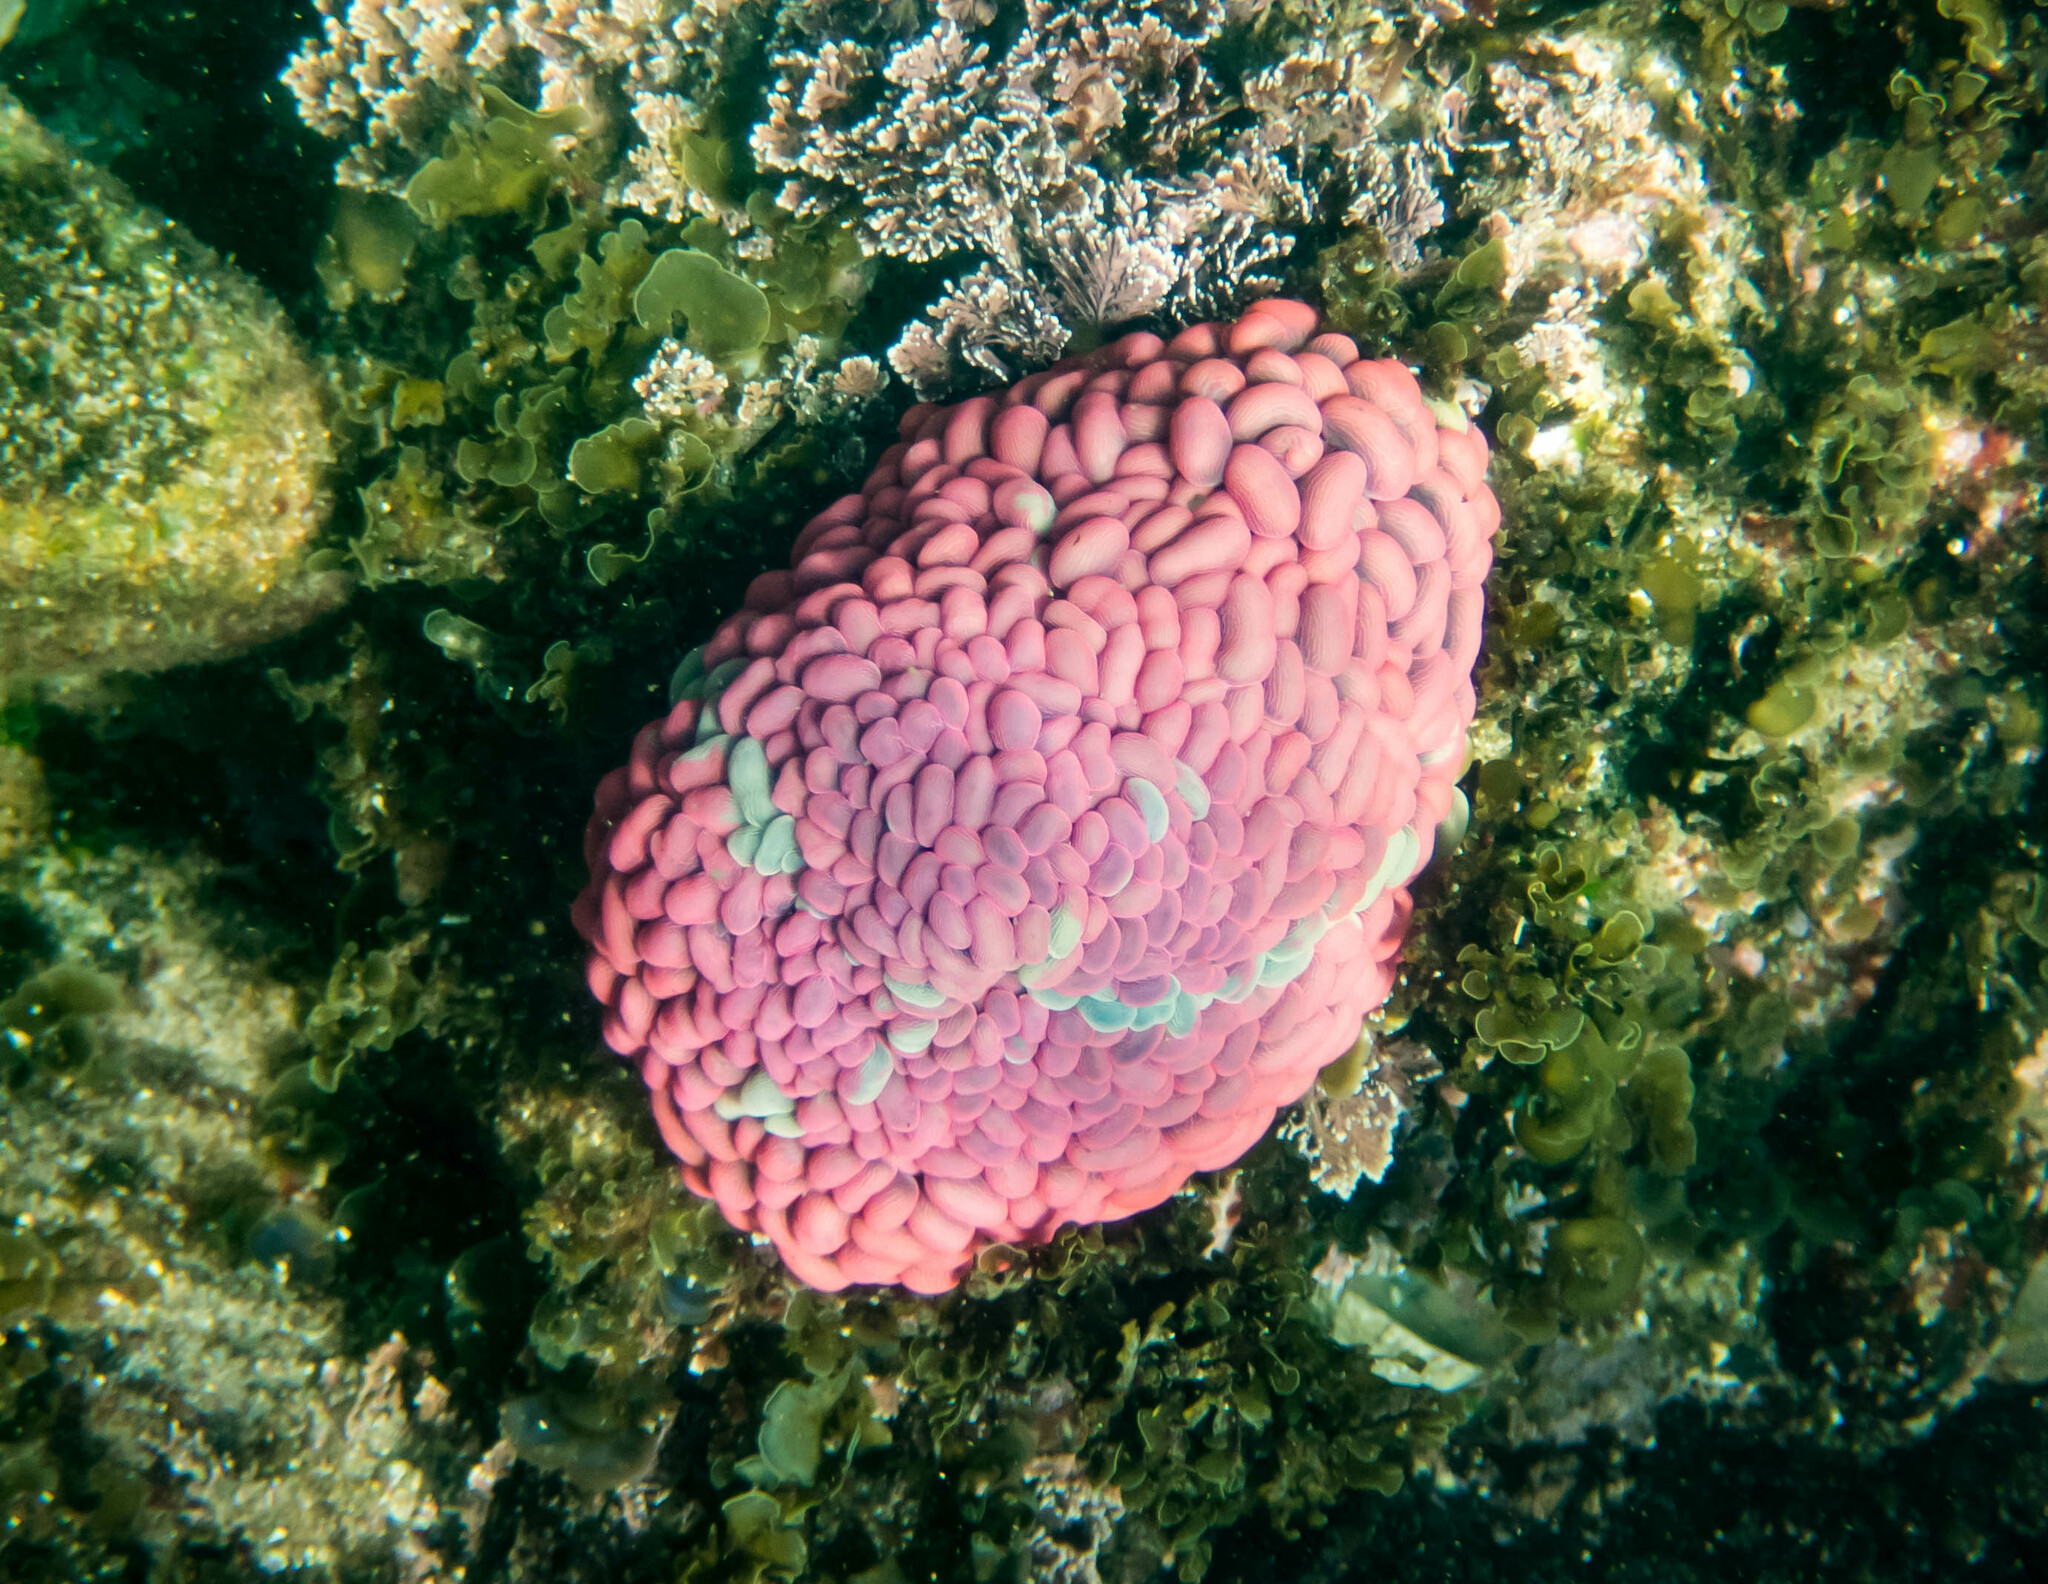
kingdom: Animalia
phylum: Cnidaria
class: Anthozoa
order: Actiniaria
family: Actiniidae
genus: Phlyctenactis
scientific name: Phlyctenactis tuberculosa
